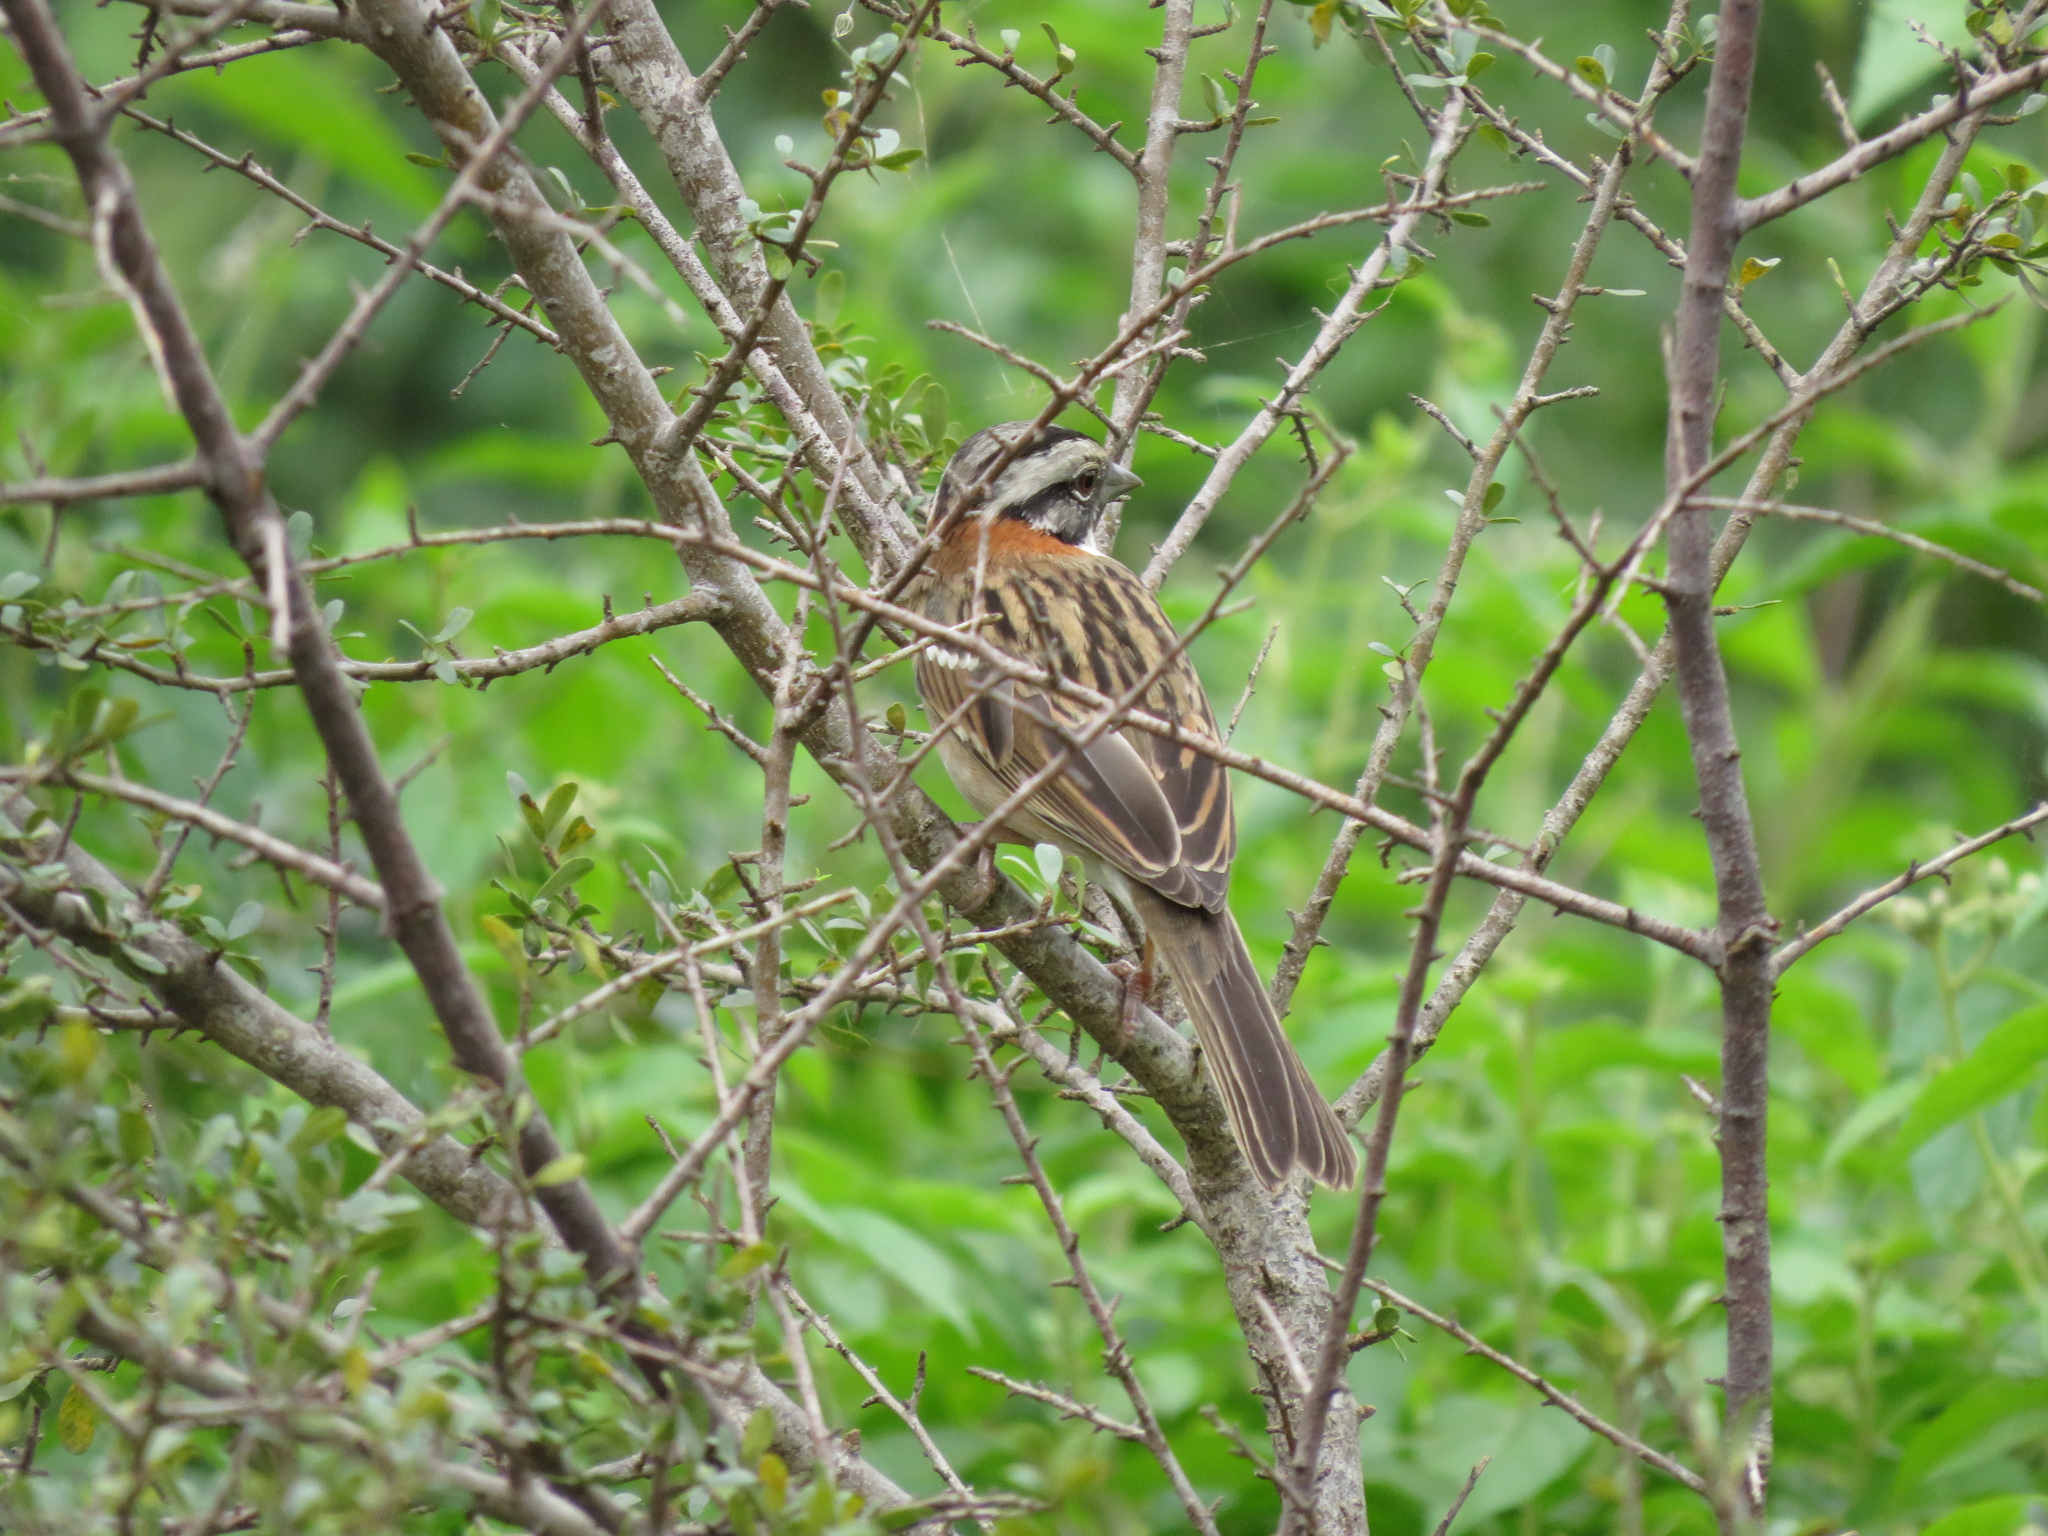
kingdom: Animalia
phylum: Chordata
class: Aves
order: Passeriformes
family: Passerellidae
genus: Zonotrichia
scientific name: Zonotrichia capensis
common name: Rufous-collared sparrow
